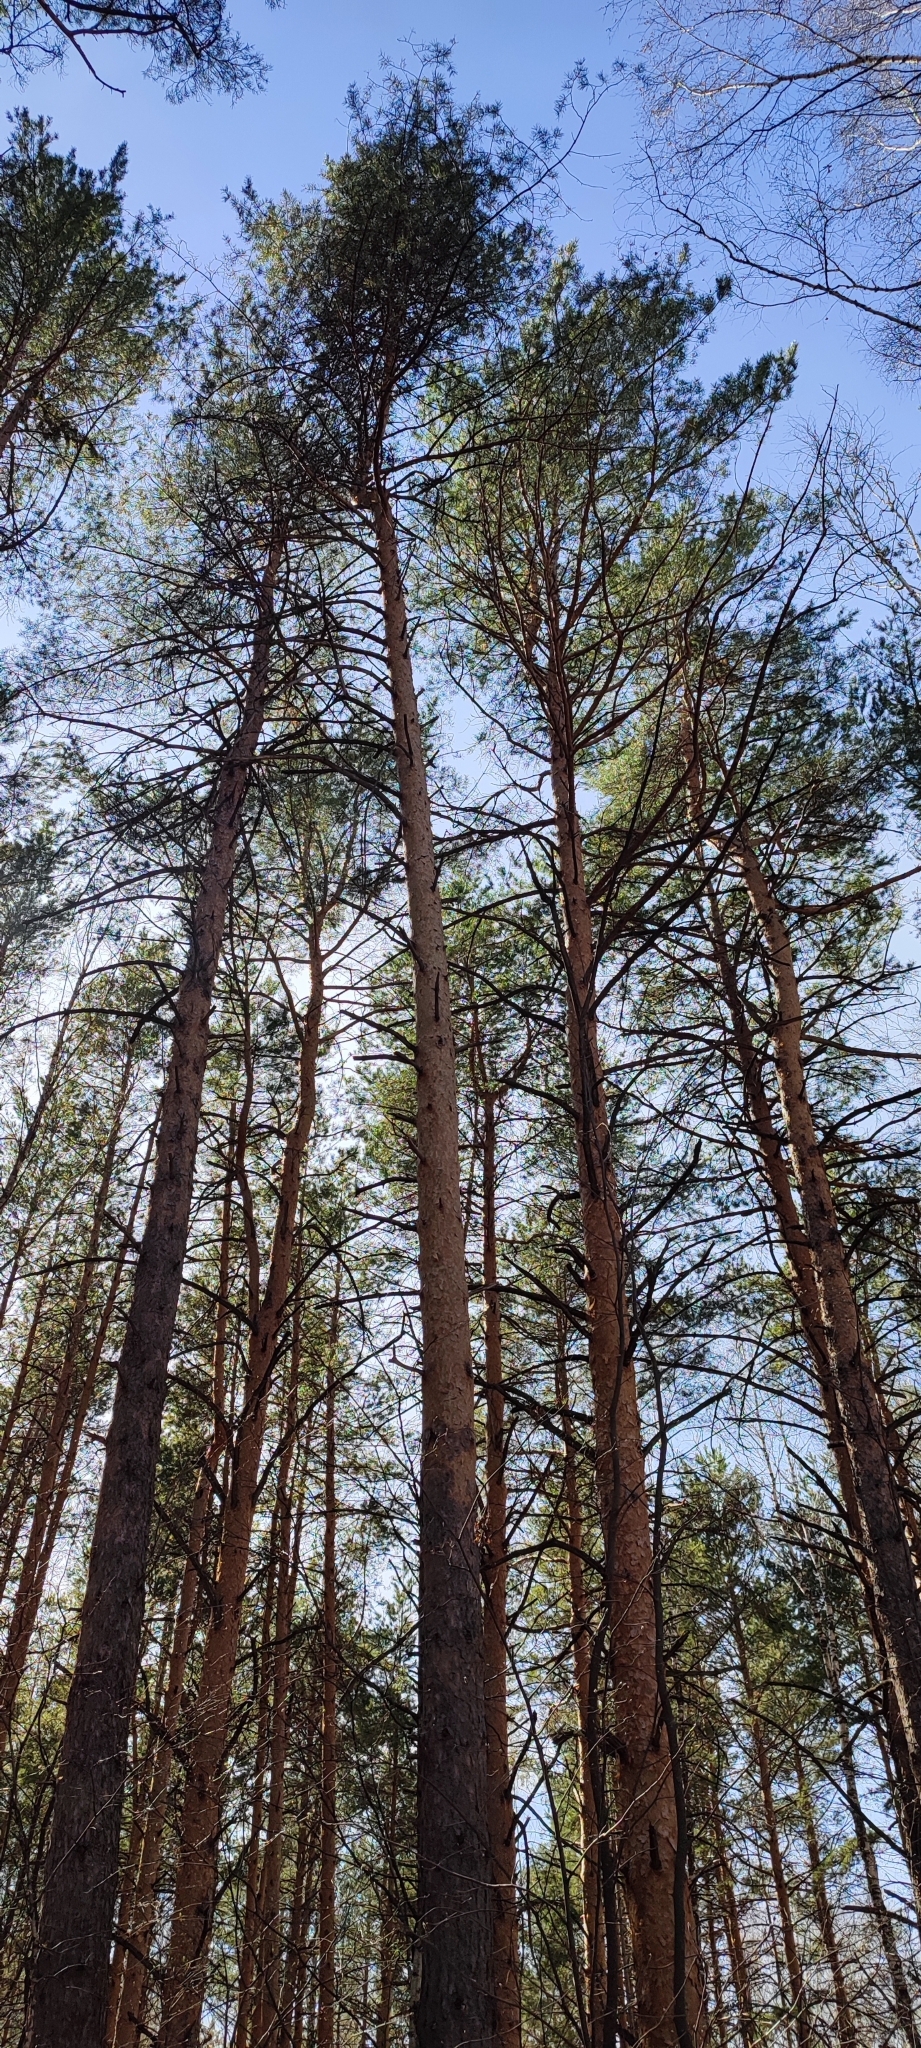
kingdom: Plantae
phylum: Tracheophyta
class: Pinopsida
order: Pinales
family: Pinaceae
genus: Pinus
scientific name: Pinus sylvestris
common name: Scots pine
